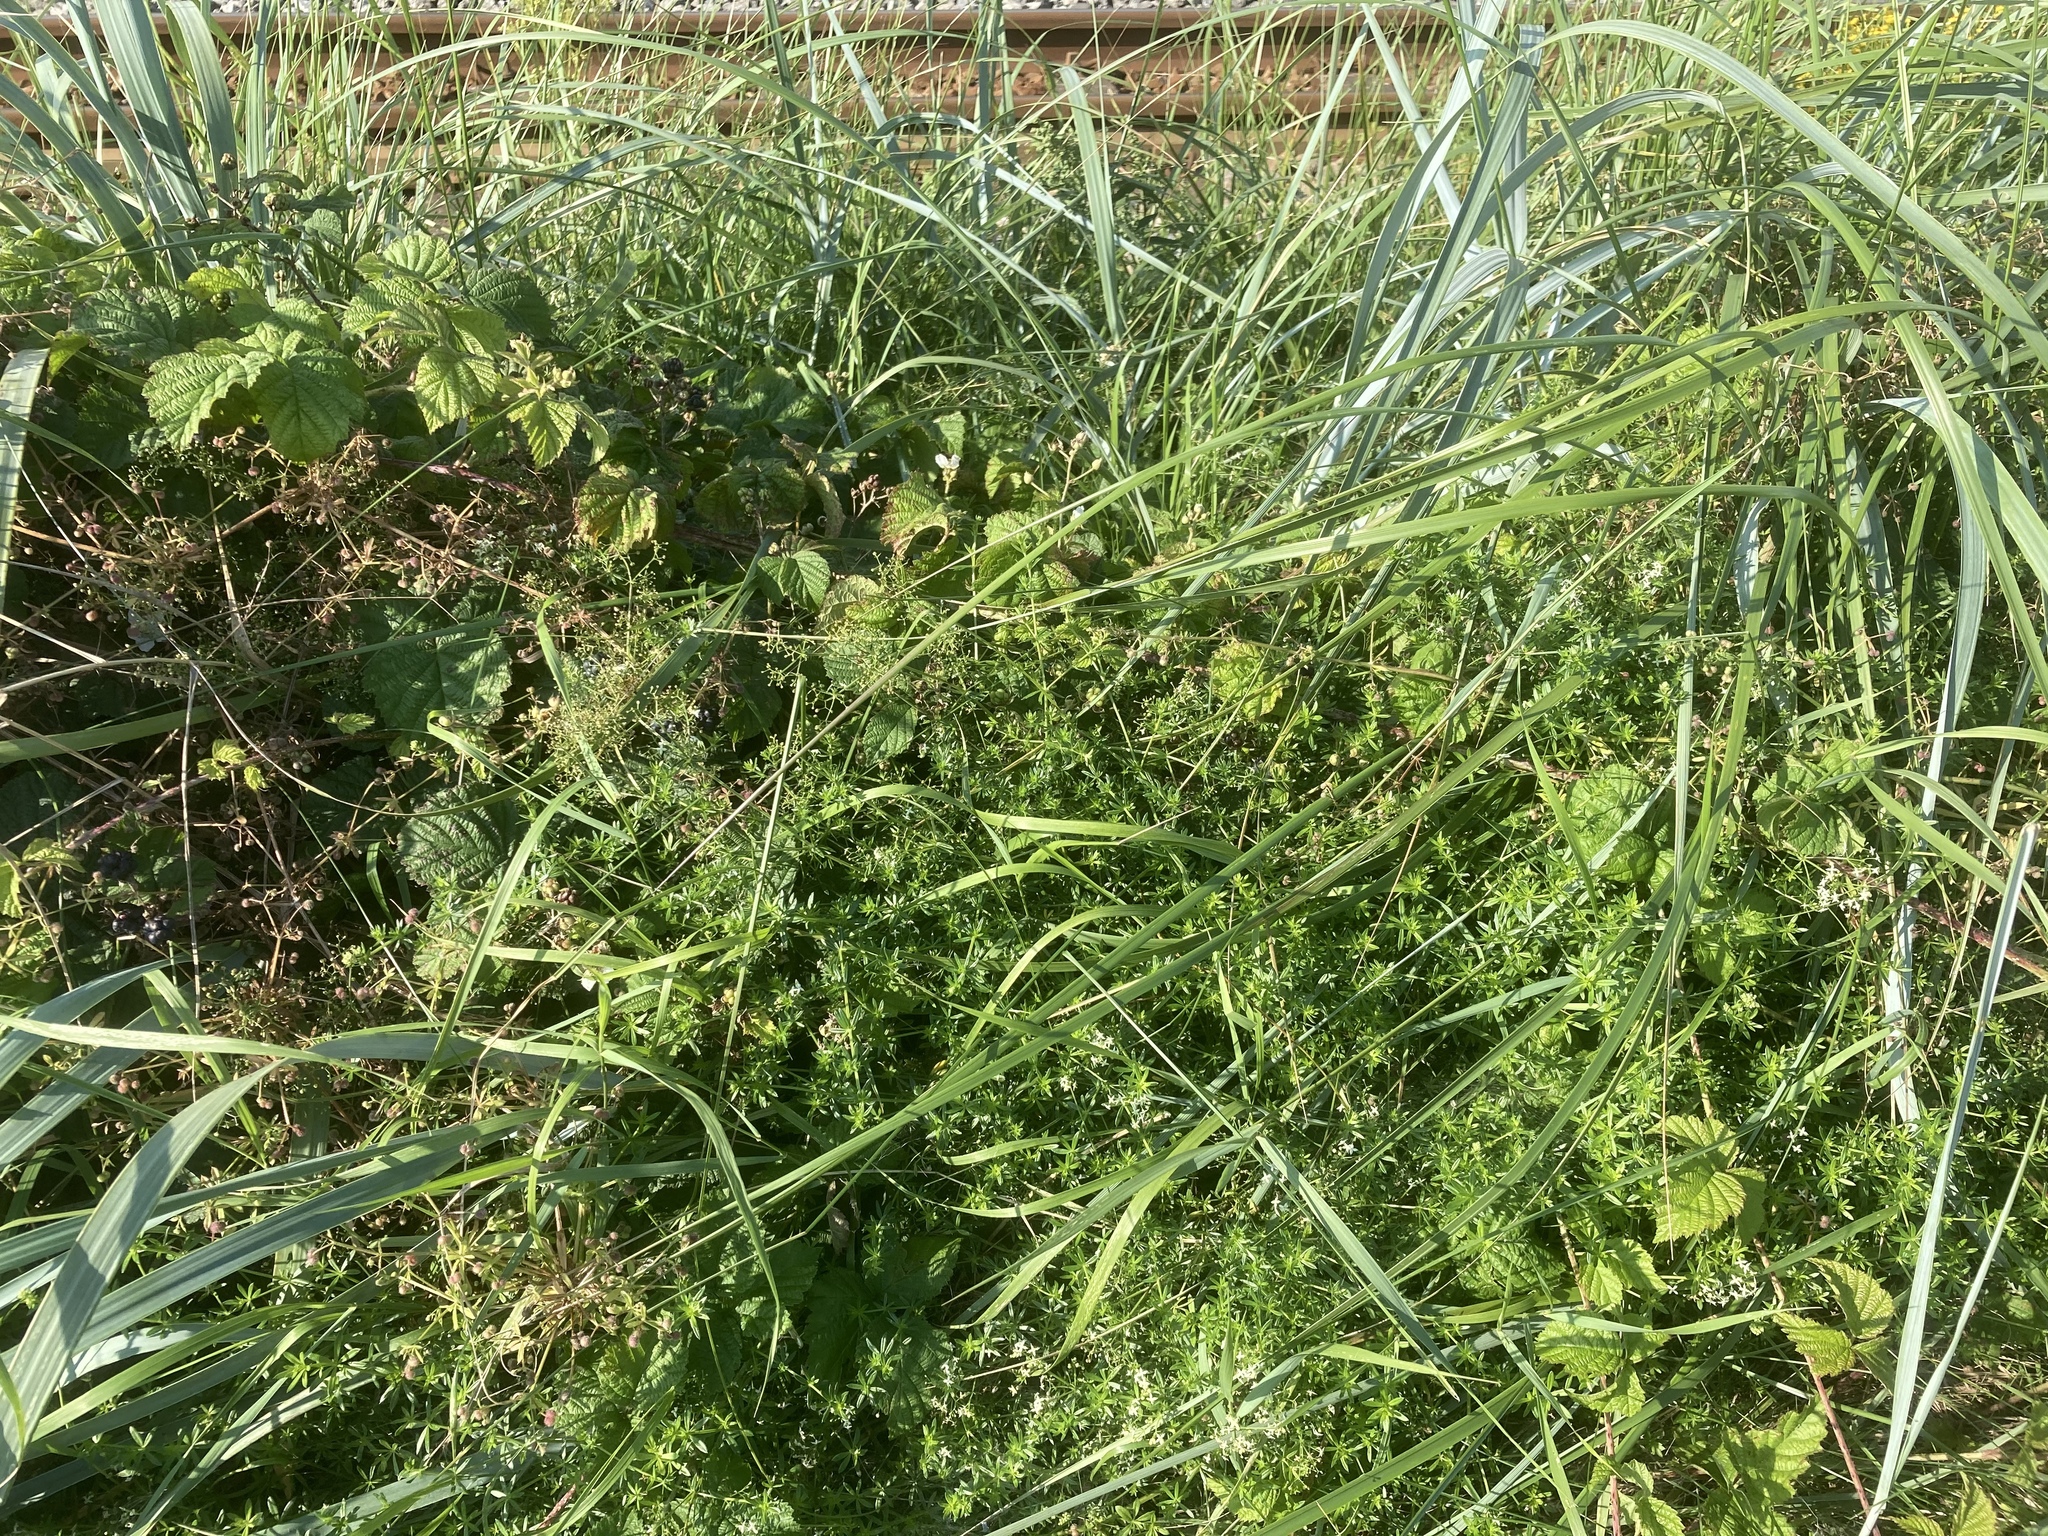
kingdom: Plantae
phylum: Tracheophyta
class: Magnoliopsida
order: Gentianales
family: Rubiaceae
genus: Galium
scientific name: Galium album
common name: White bedstraw
